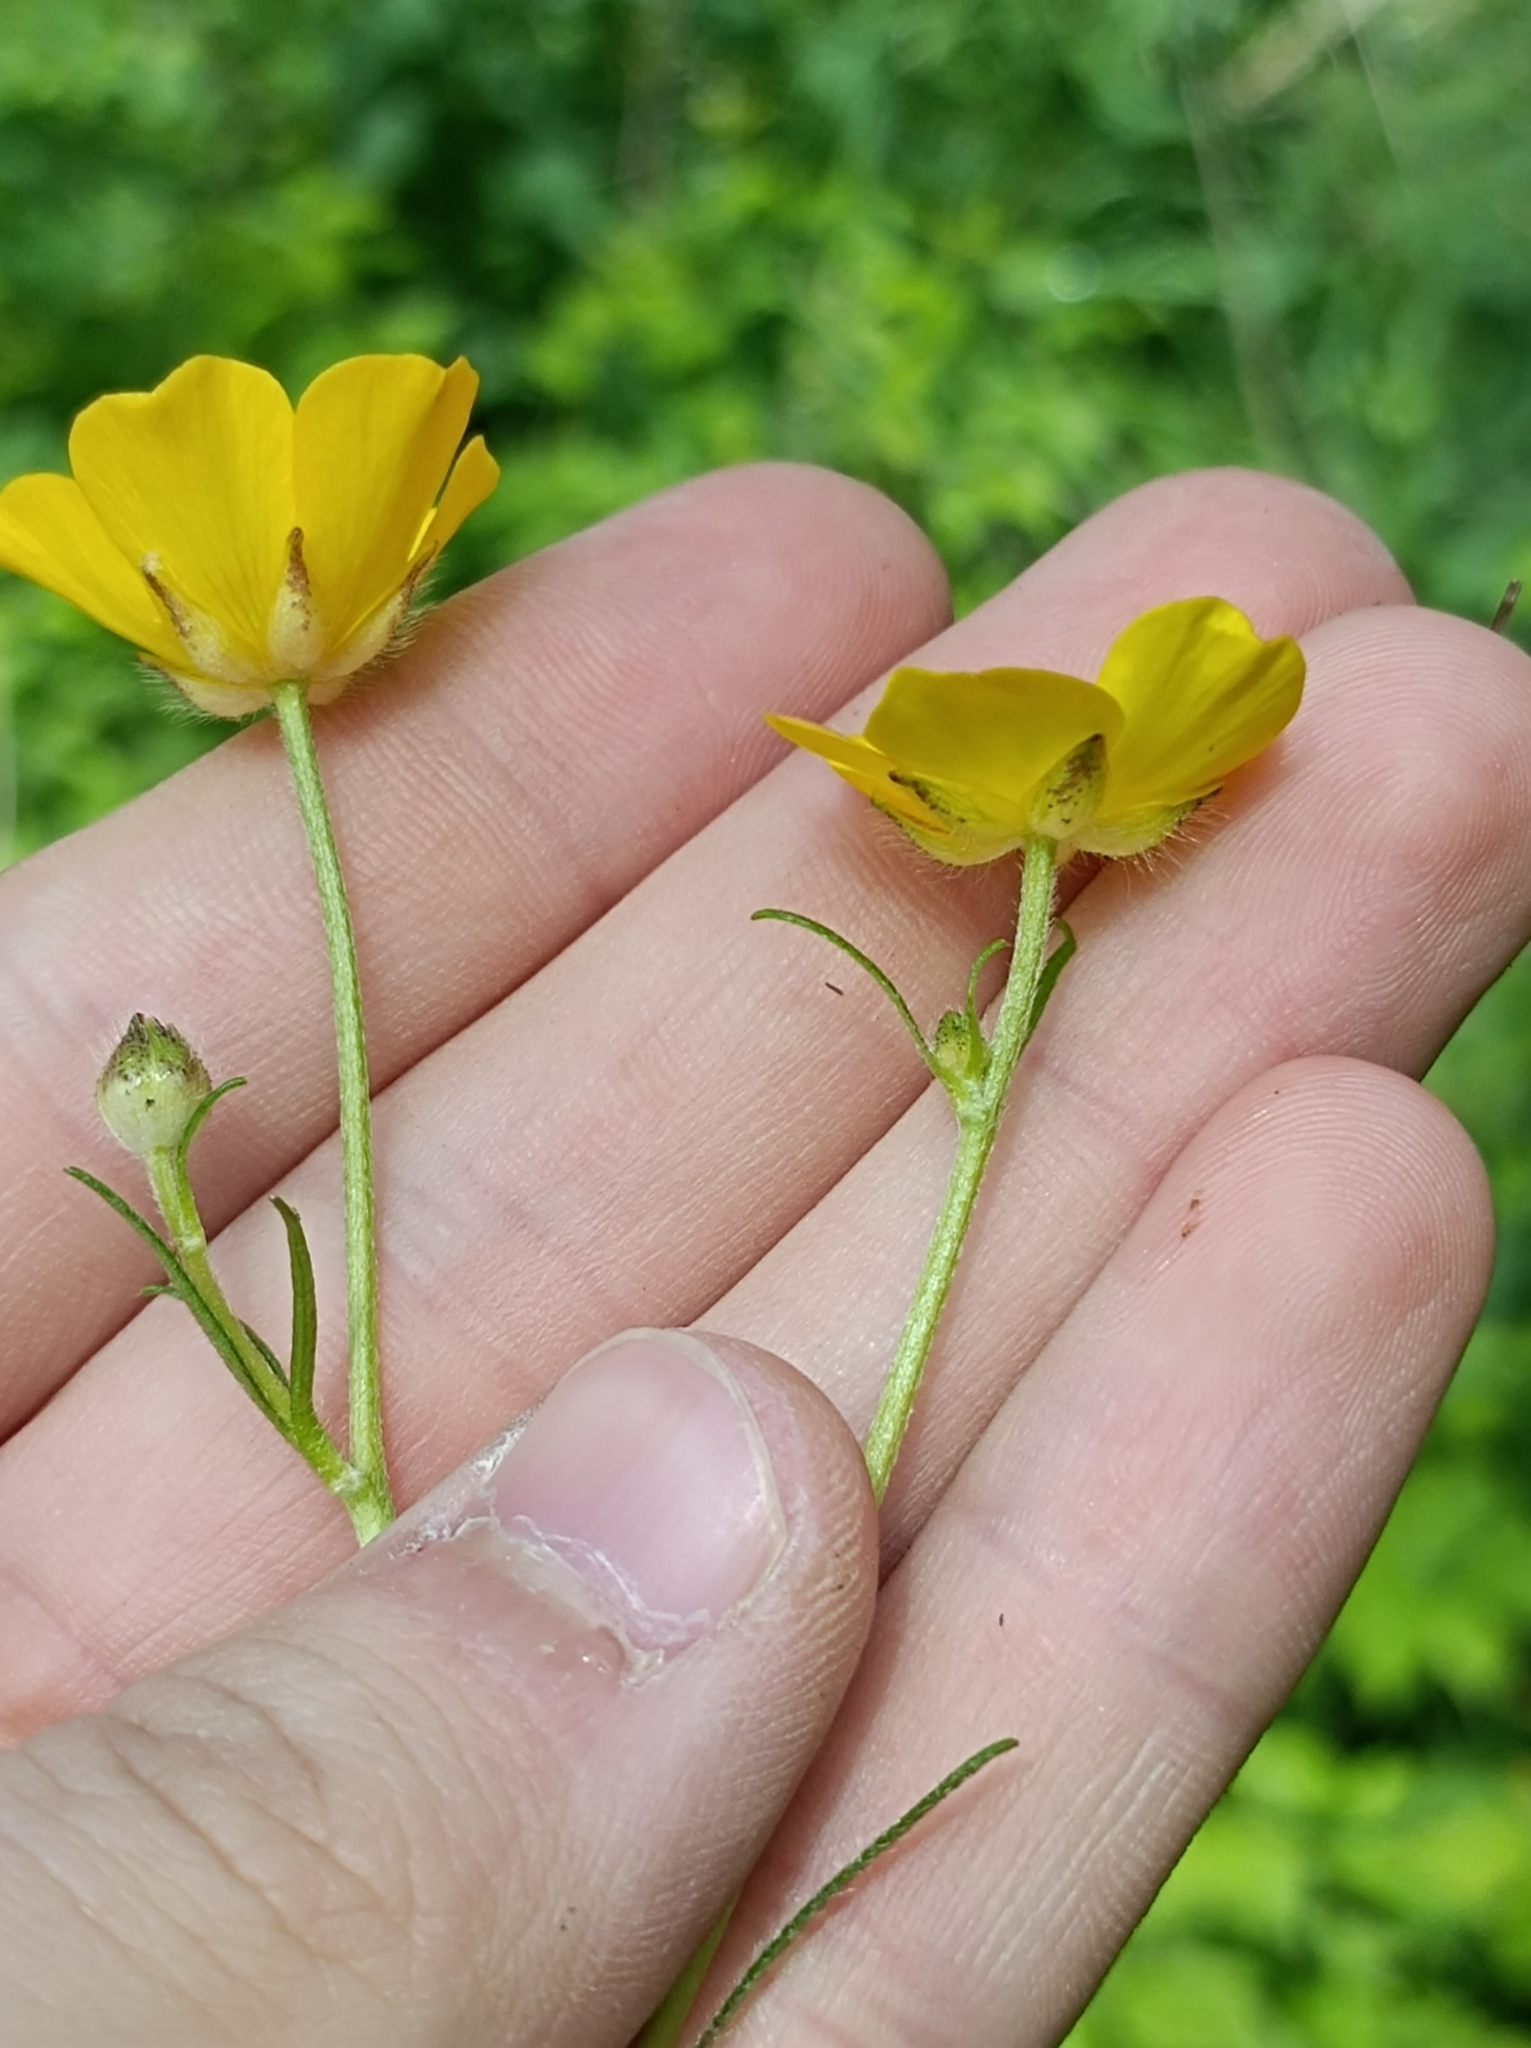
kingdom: Plantae
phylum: Tracheophyta
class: Magnoliopsida
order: Ranunculales
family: Ranunculaceae
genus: Ranunculus
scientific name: Ranunculus polyanthemos
